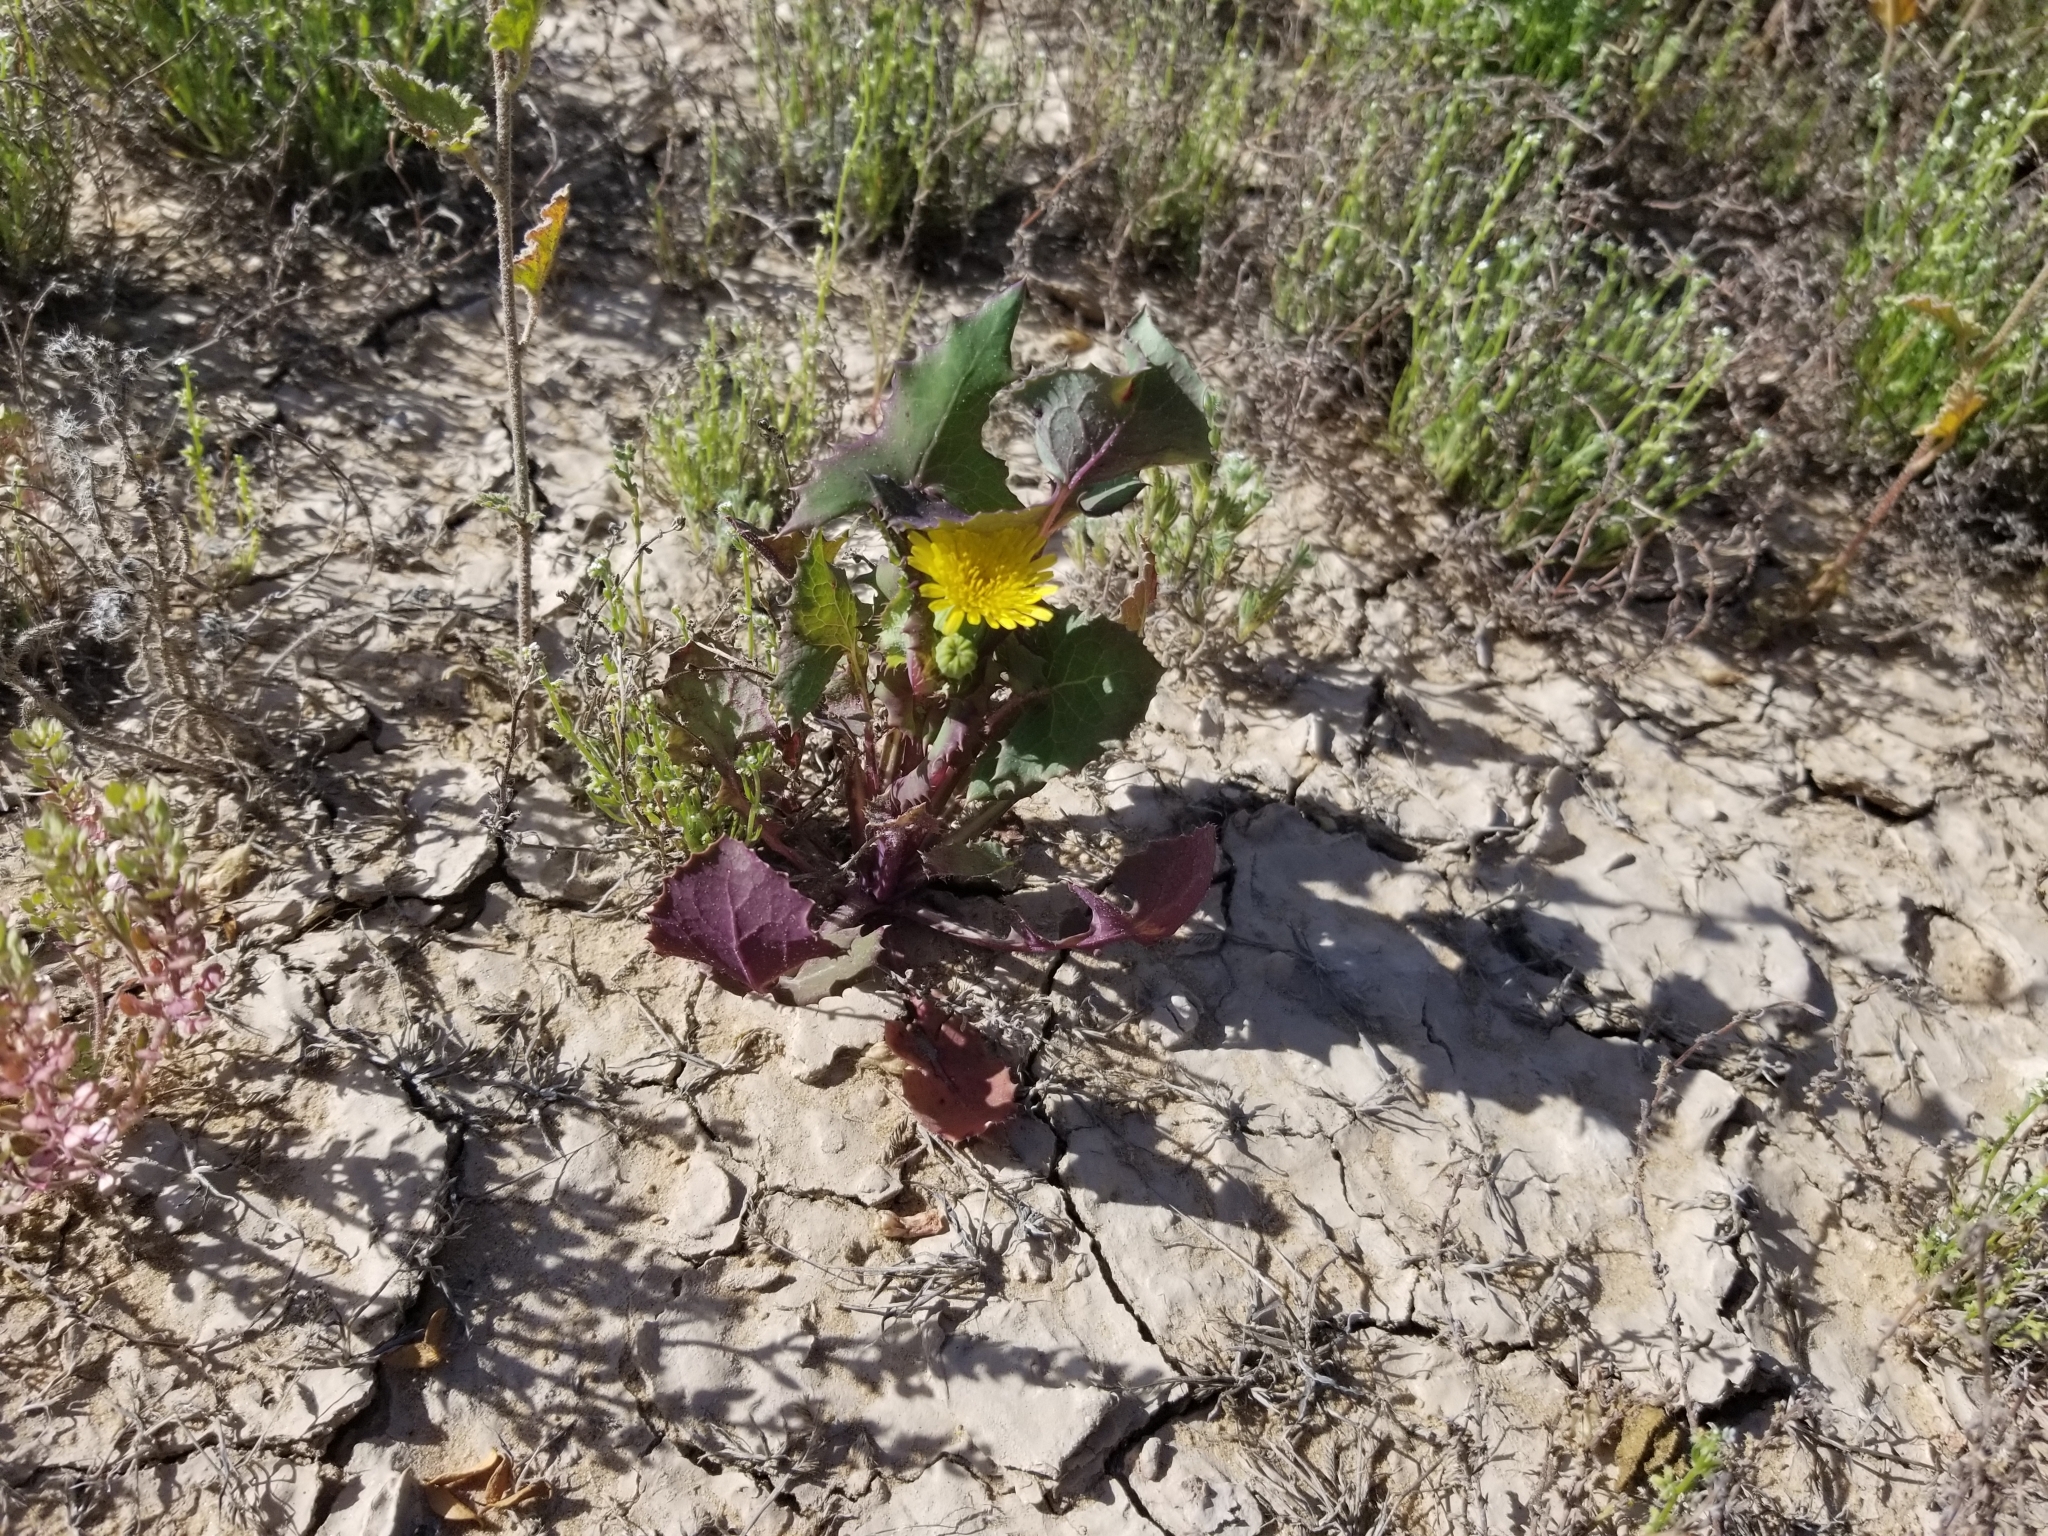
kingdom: Plantae
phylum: Tracheophyta
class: Magnoliopsida
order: Asterales
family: Asteraceae
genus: Sonchus
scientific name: Sonchus oleraceus
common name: Common sowthistle
